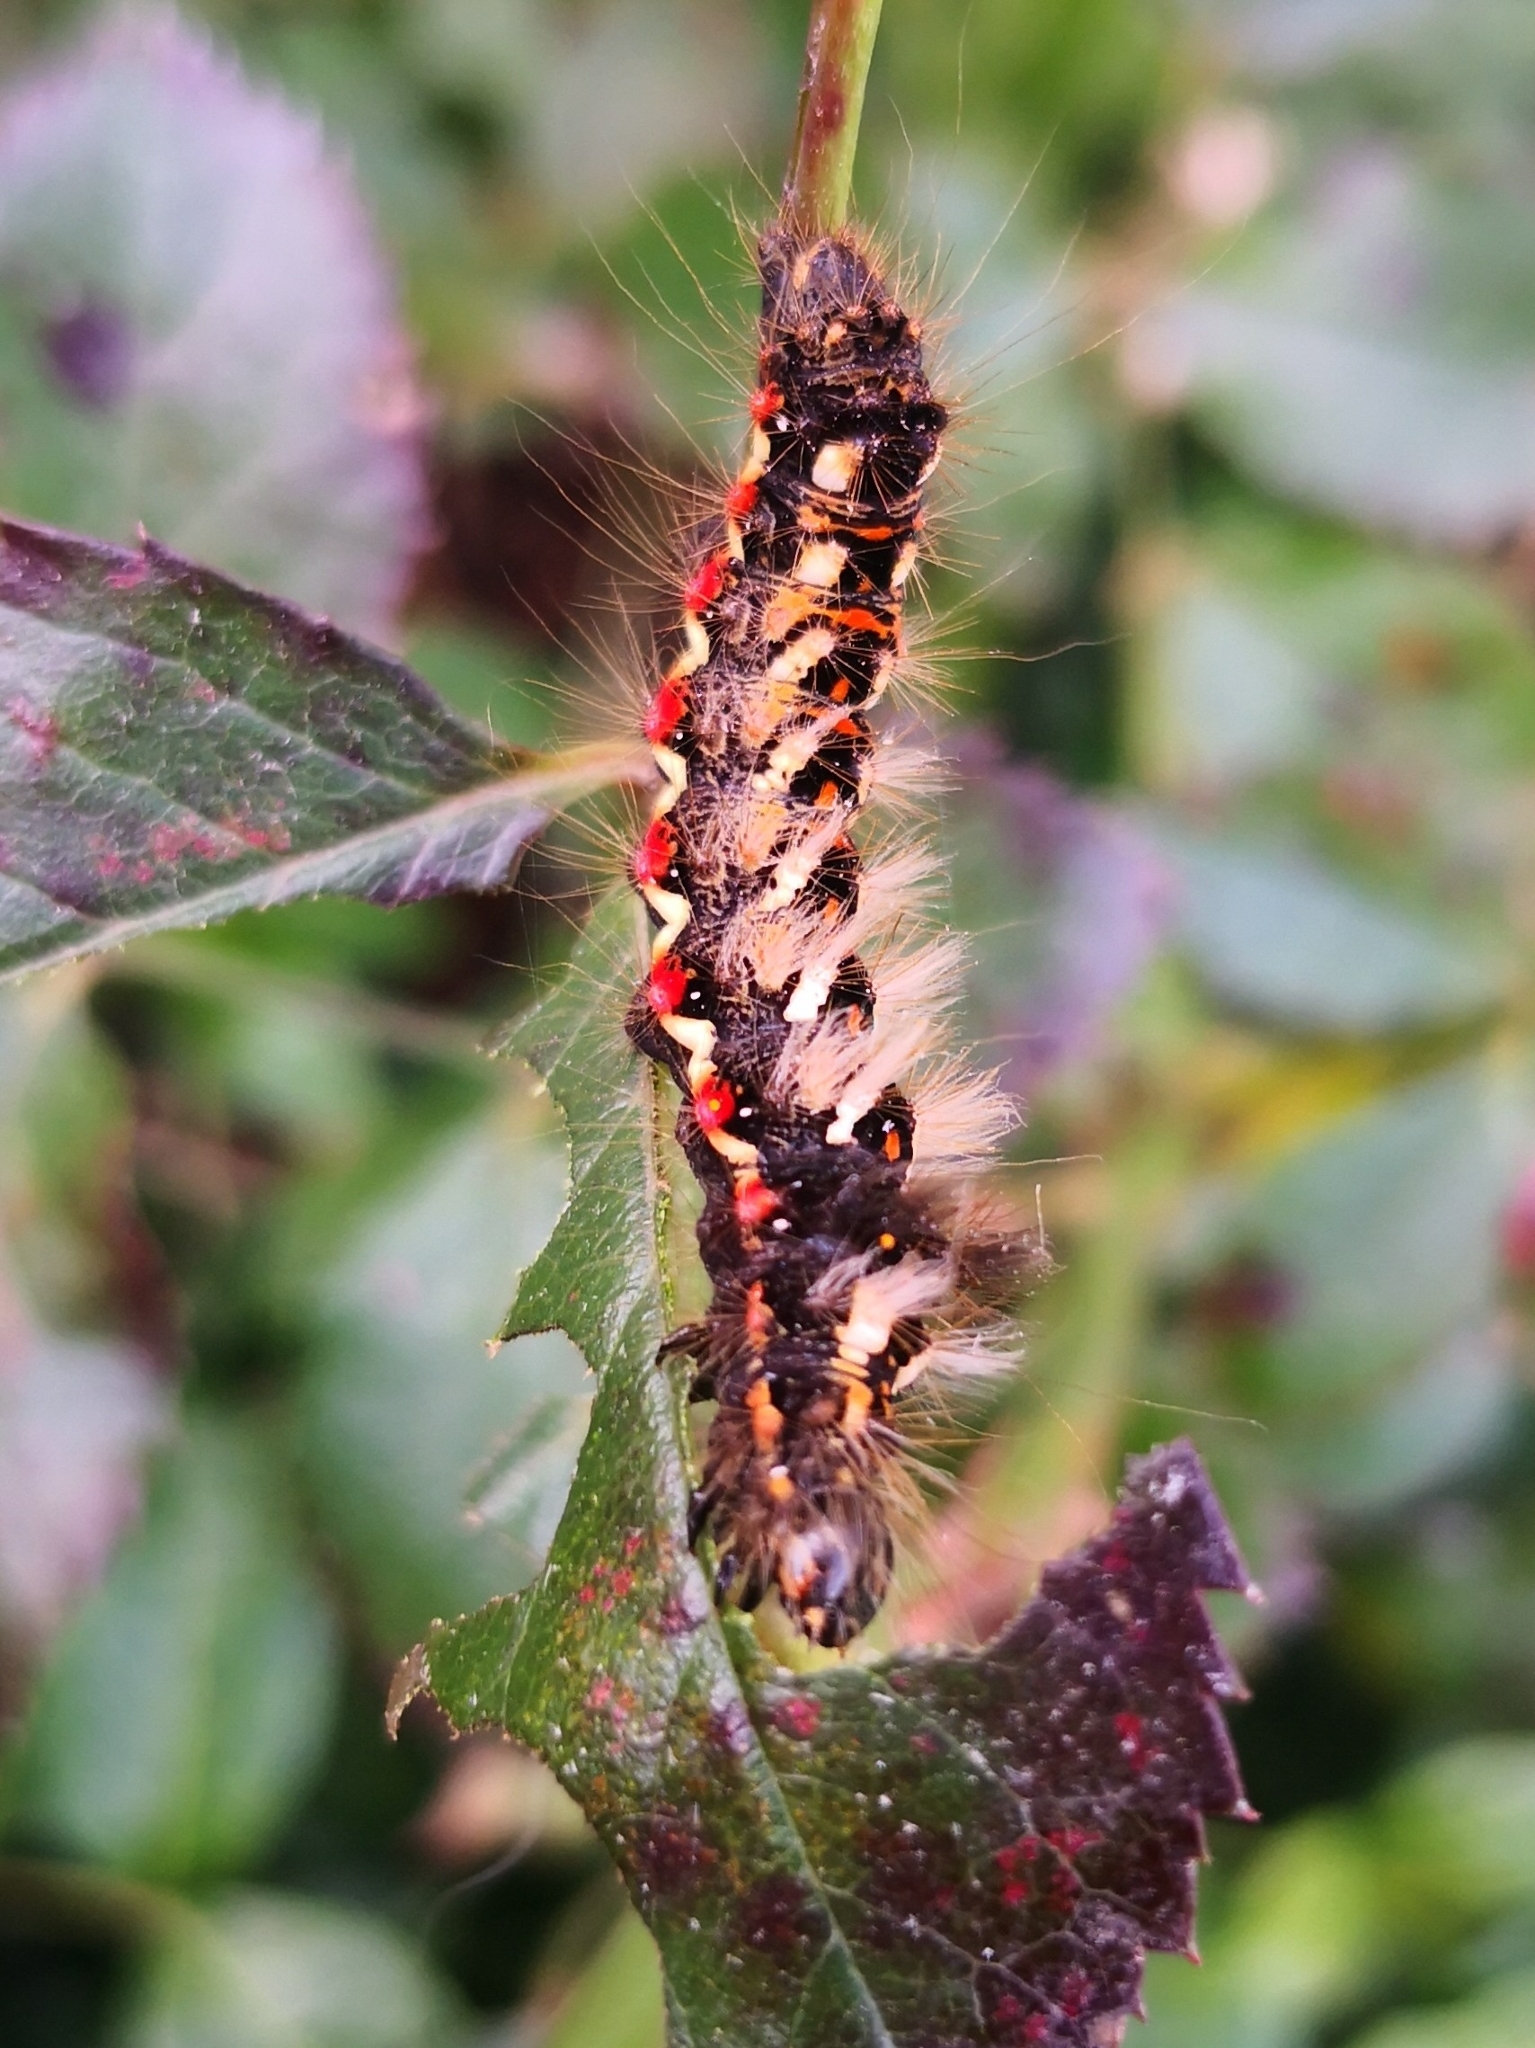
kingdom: Animalia
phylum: Arthropoda
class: Insecta
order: Lepidoptera
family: Noctuidae
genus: Acronicta
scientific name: Acronicta rumicis
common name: Knot grass
